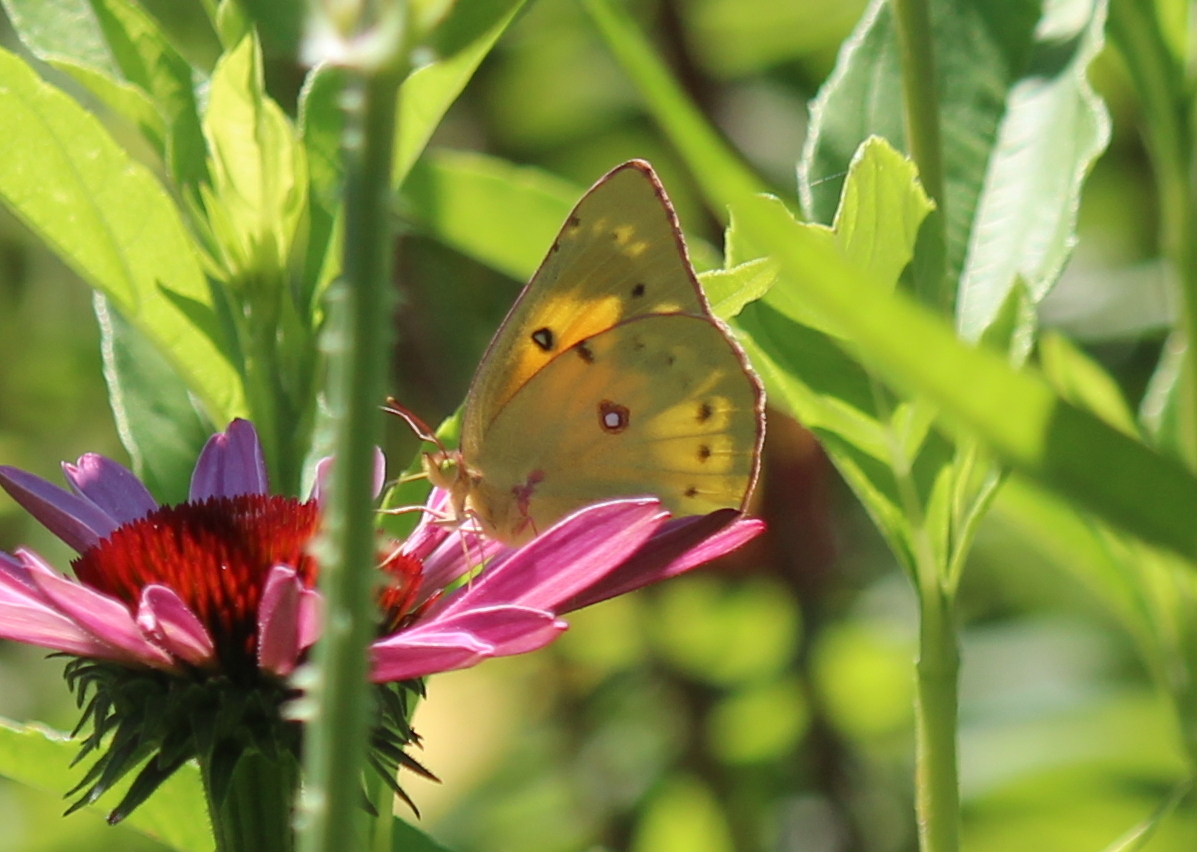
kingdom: Animalia
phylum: Arthropoda
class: Insecta
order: Lepidoptera
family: Pieridae
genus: Colias
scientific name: Colias eurytheme
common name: Alfalfa butterfly
